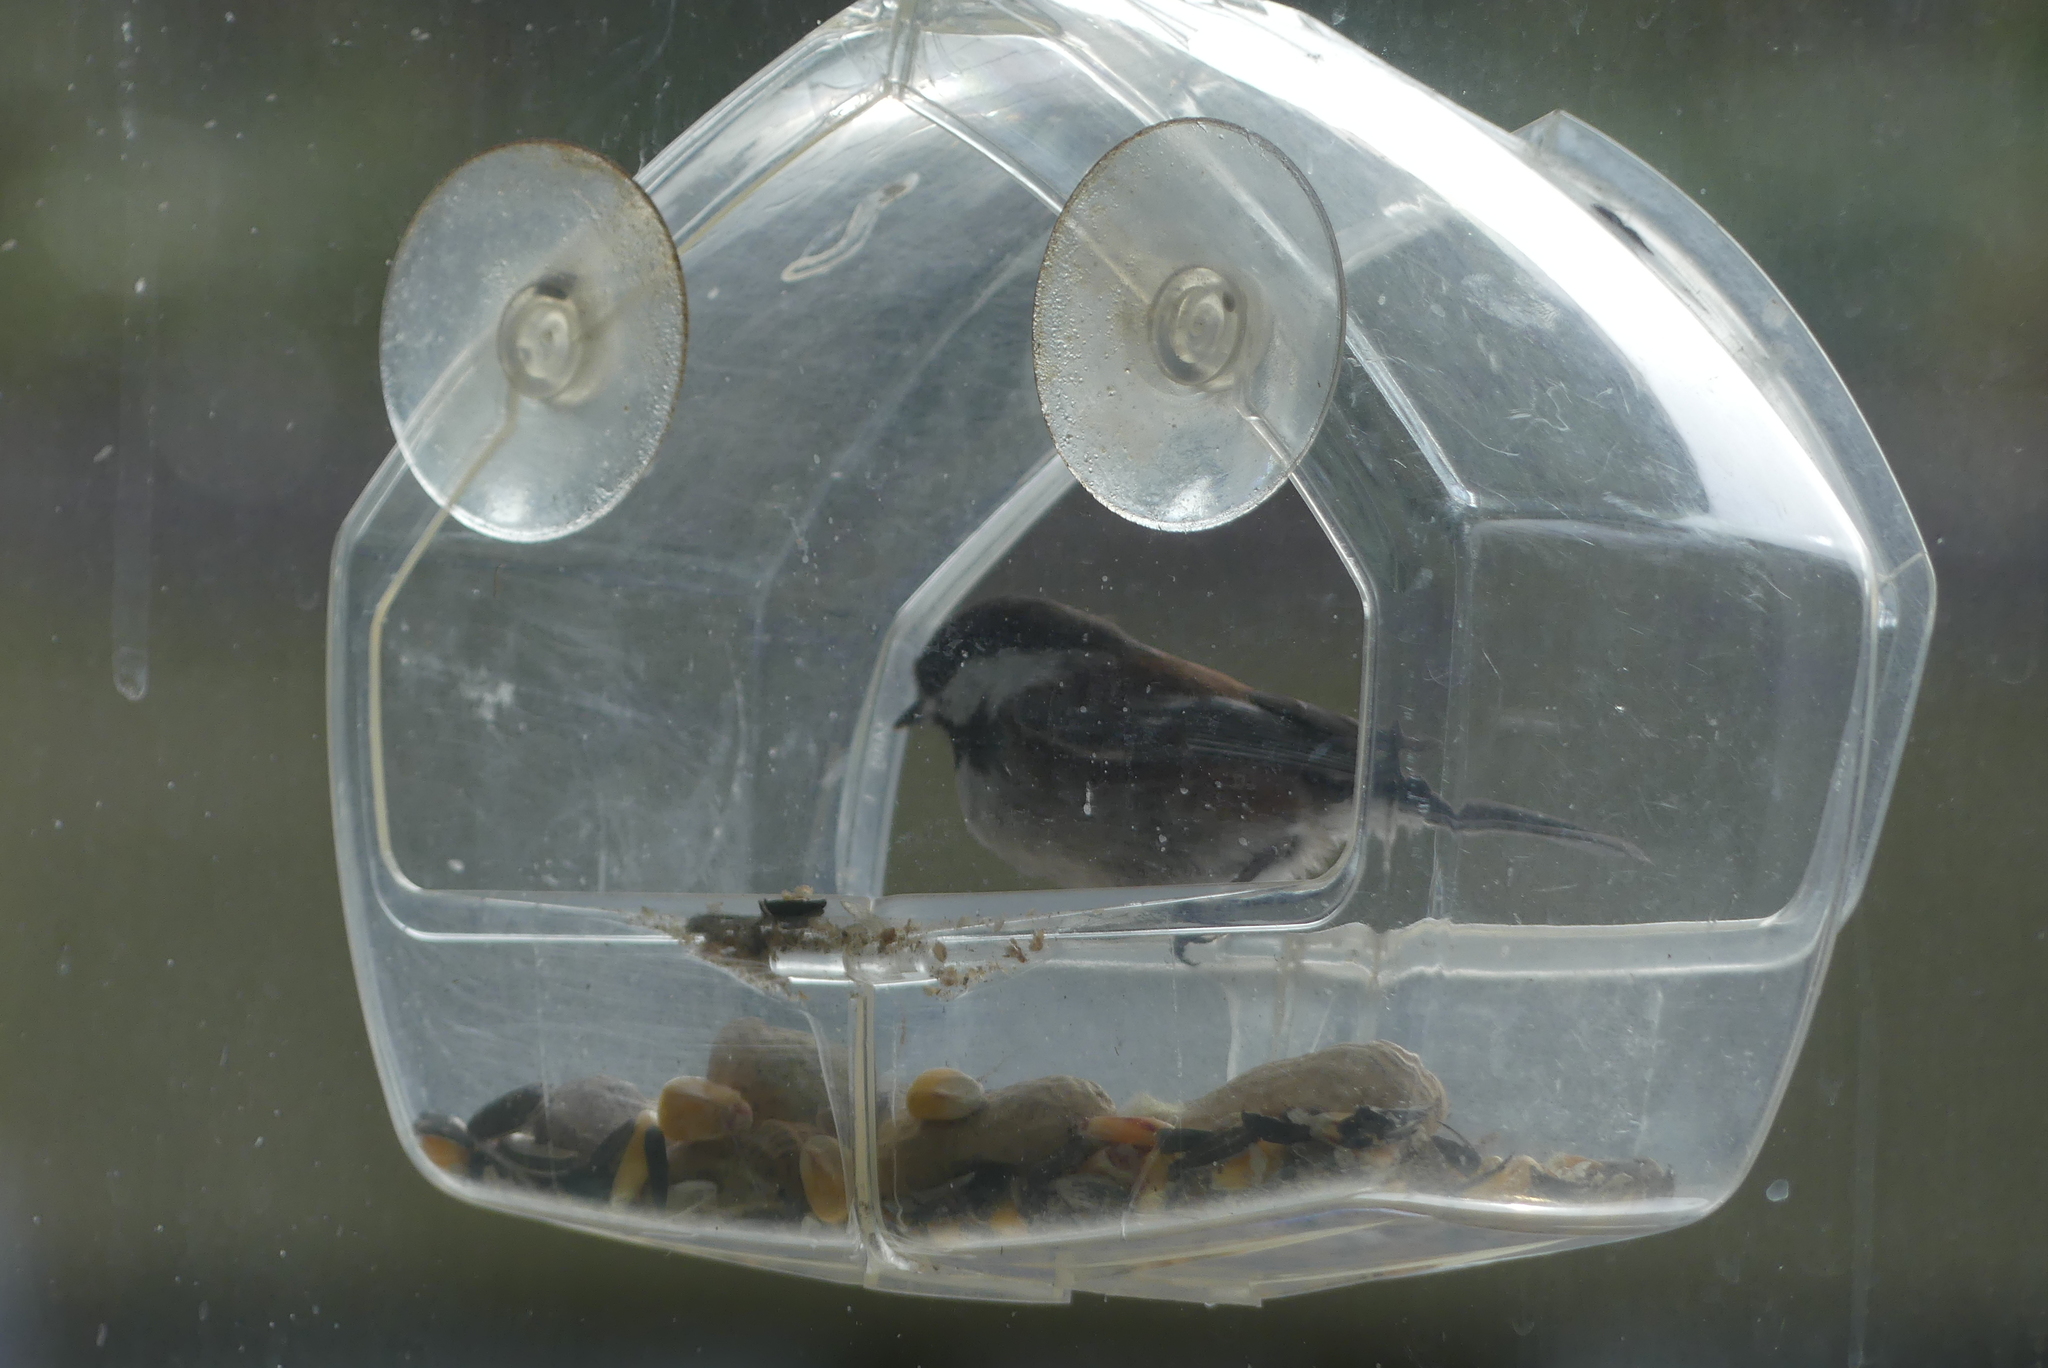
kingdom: Animalia
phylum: Chordata
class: Aves
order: Passeriformes
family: Paridae
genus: Poecile
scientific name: Poecile rufescens
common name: Chestnut-backed chickadee
